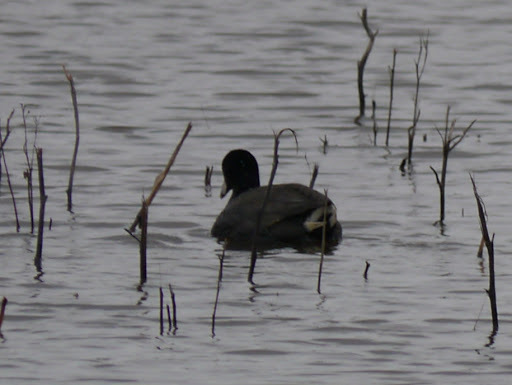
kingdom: Animalia
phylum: Chordata
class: Aves
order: Gruiformes
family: Rallidae
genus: Fulica
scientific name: Fulica americana
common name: American coot
